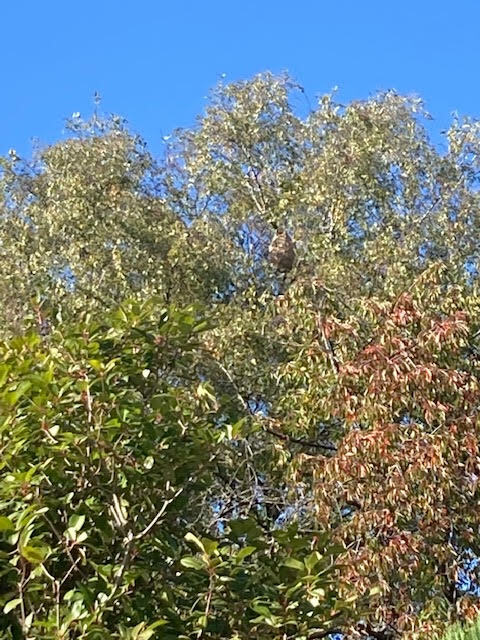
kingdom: Animalia
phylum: Arthropoda
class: Insecta
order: Hymenoptera
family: Vespidae
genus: Vespa
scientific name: Vespa velutina
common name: Asian hornet
